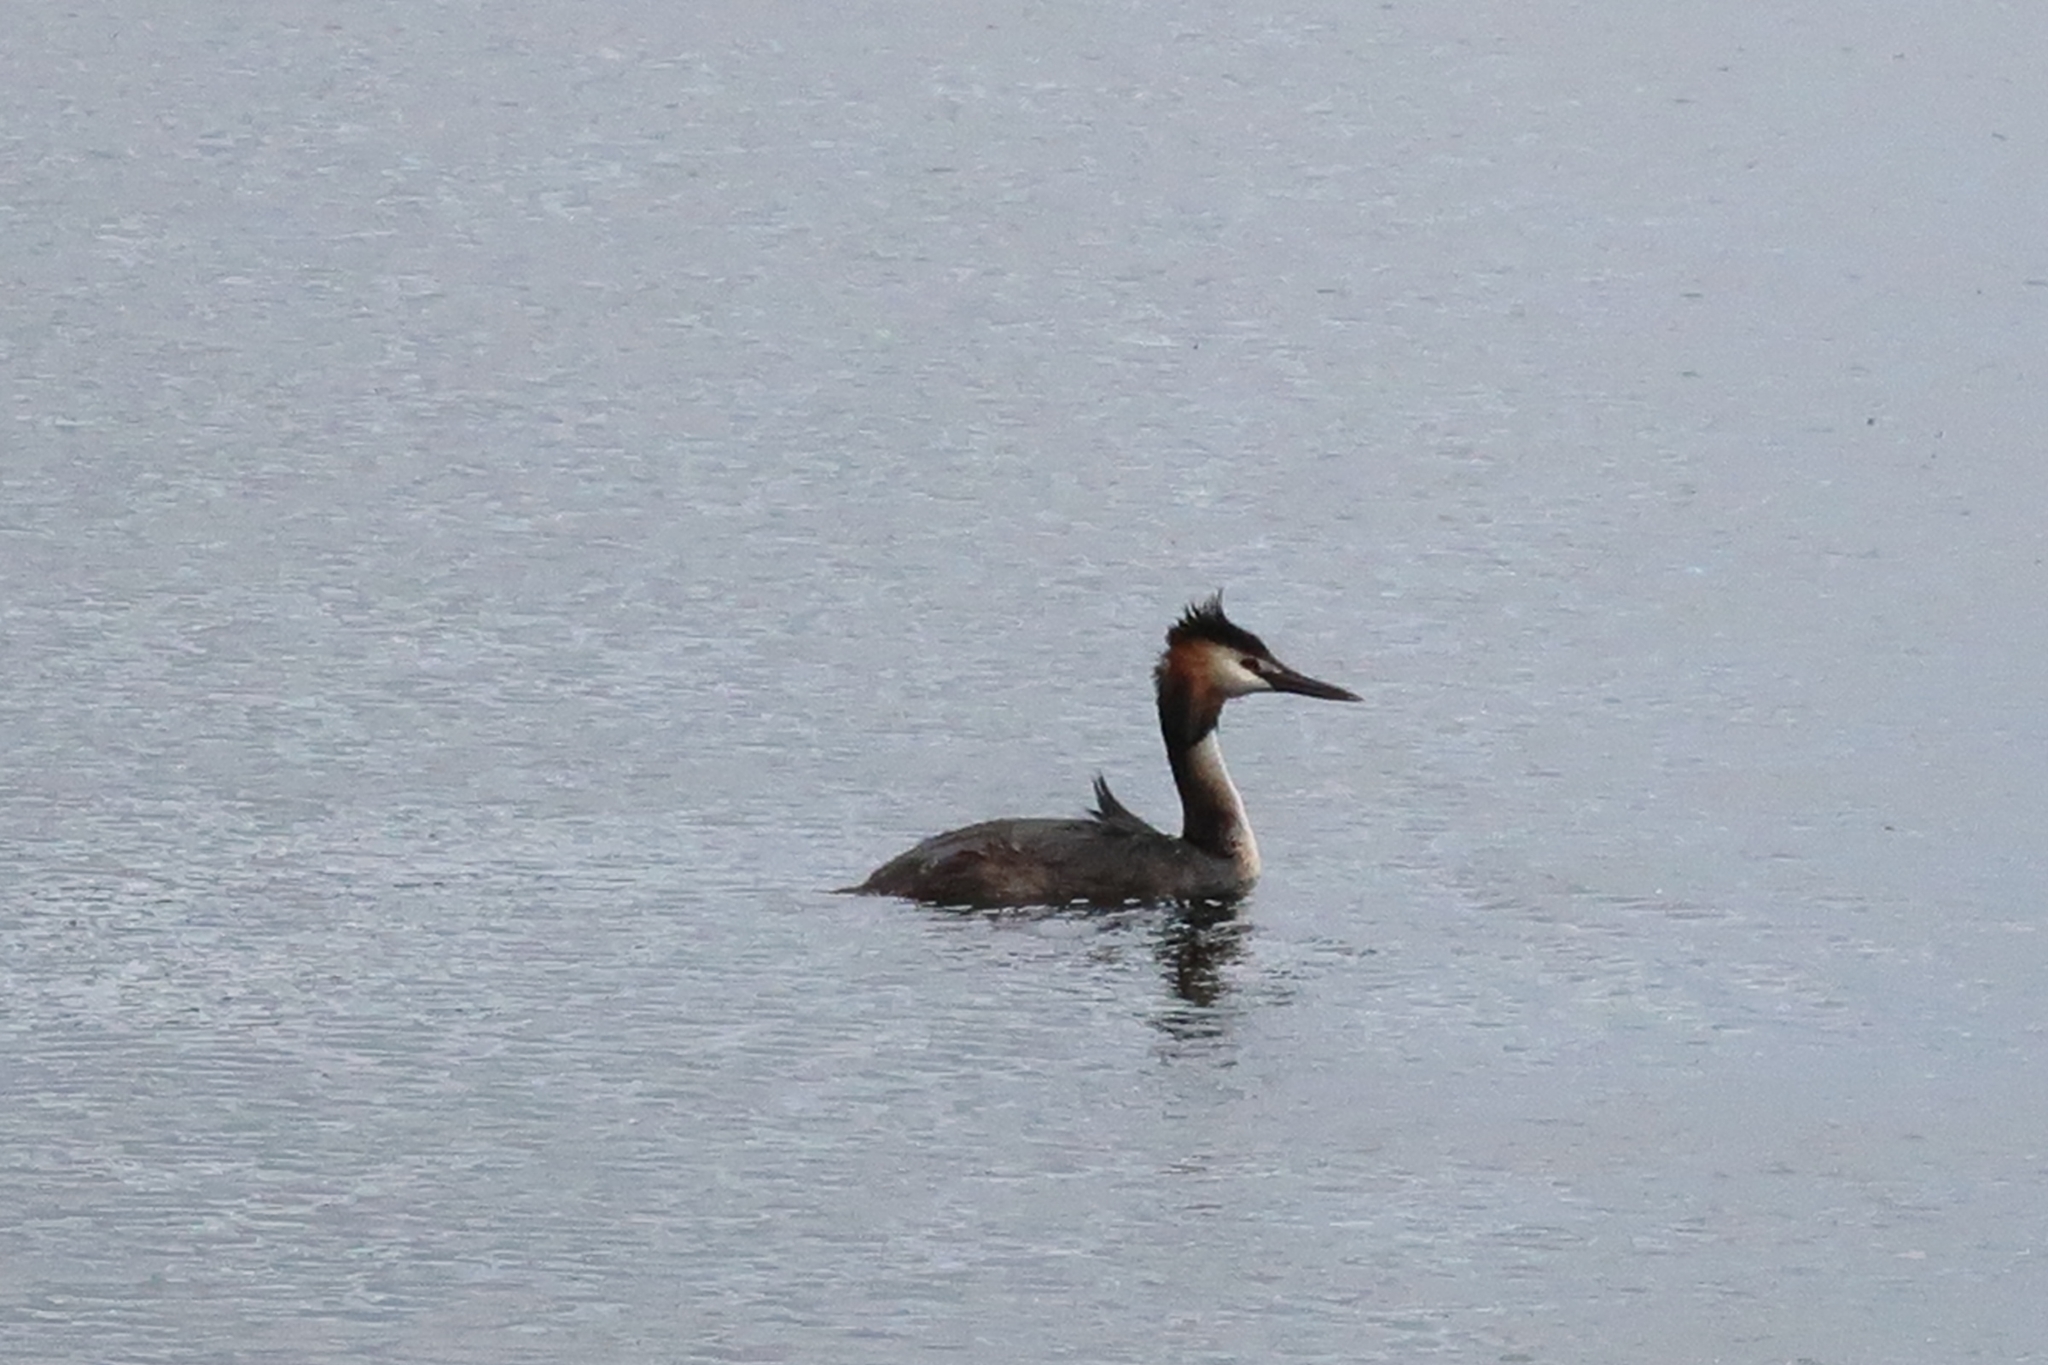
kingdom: Animalia
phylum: Chordata
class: Aves
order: Podicipediformes
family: Podicipedidae
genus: Podiceps
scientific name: Podiceps cristatus
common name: Great crested grebe
